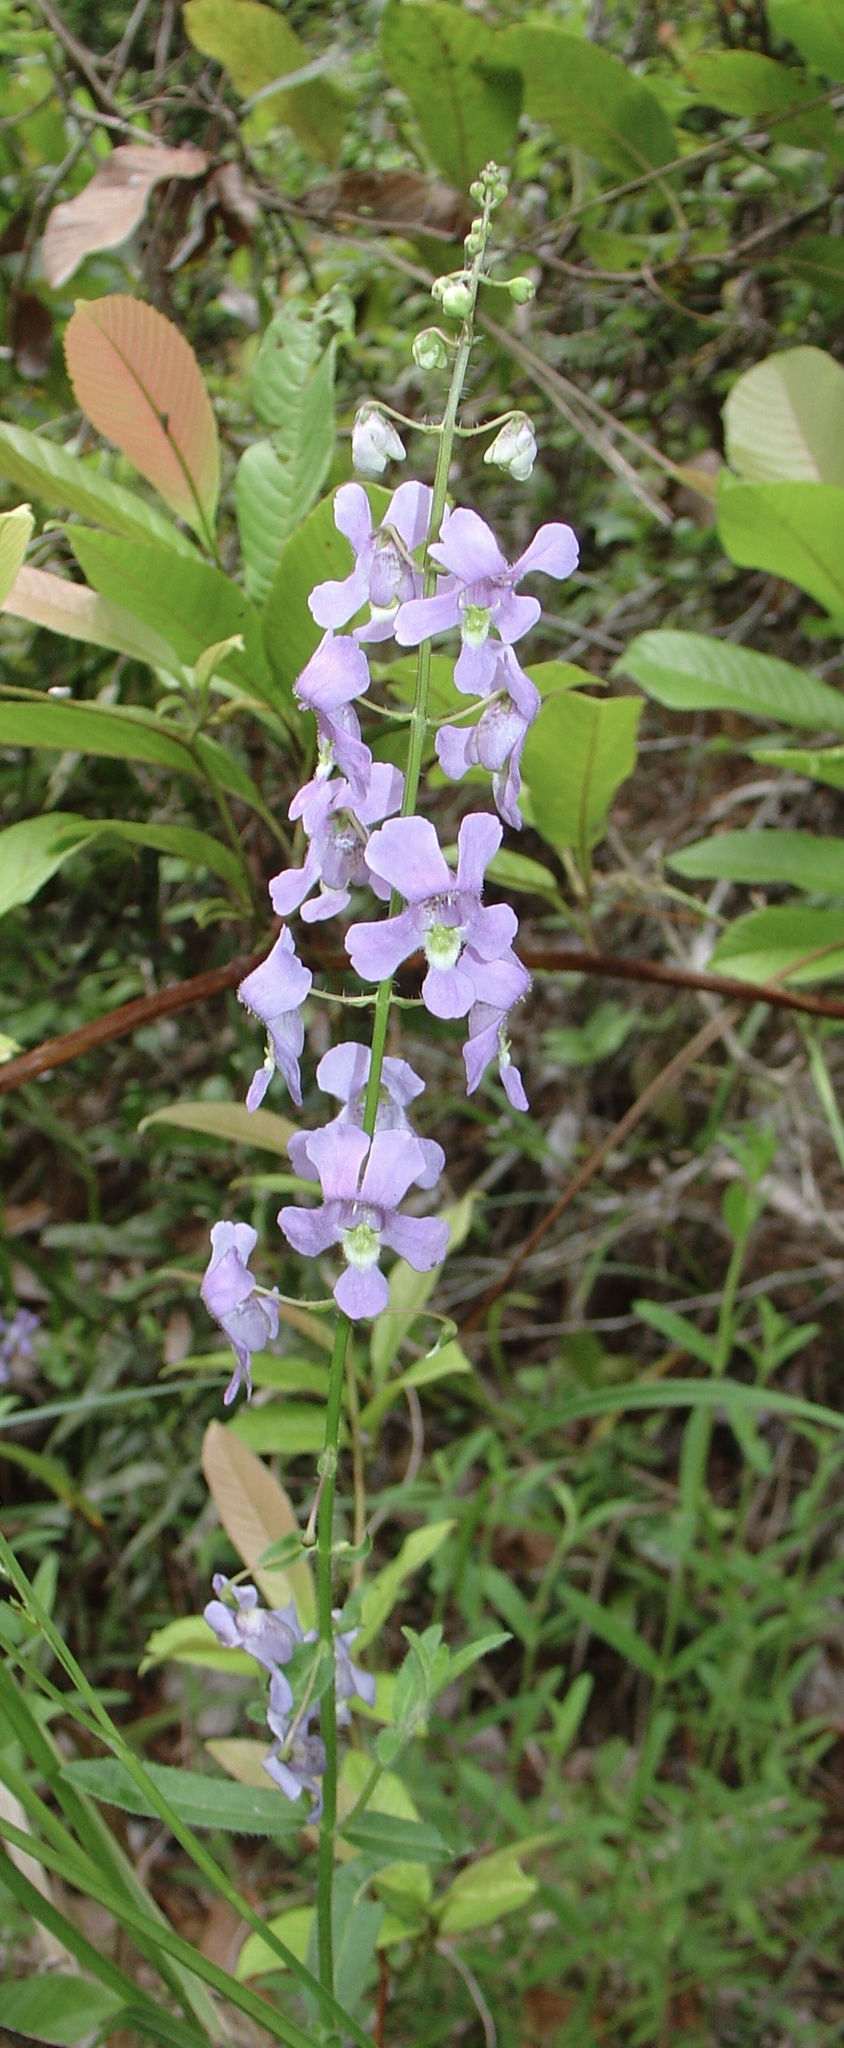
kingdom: Plantae
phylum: Tracheophyta
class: Magnoliopsida
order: Lamiales
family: Plantaginaceae
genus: Angelonia
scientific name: Angelonia angustifolia
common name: Narrowleaf angelon
